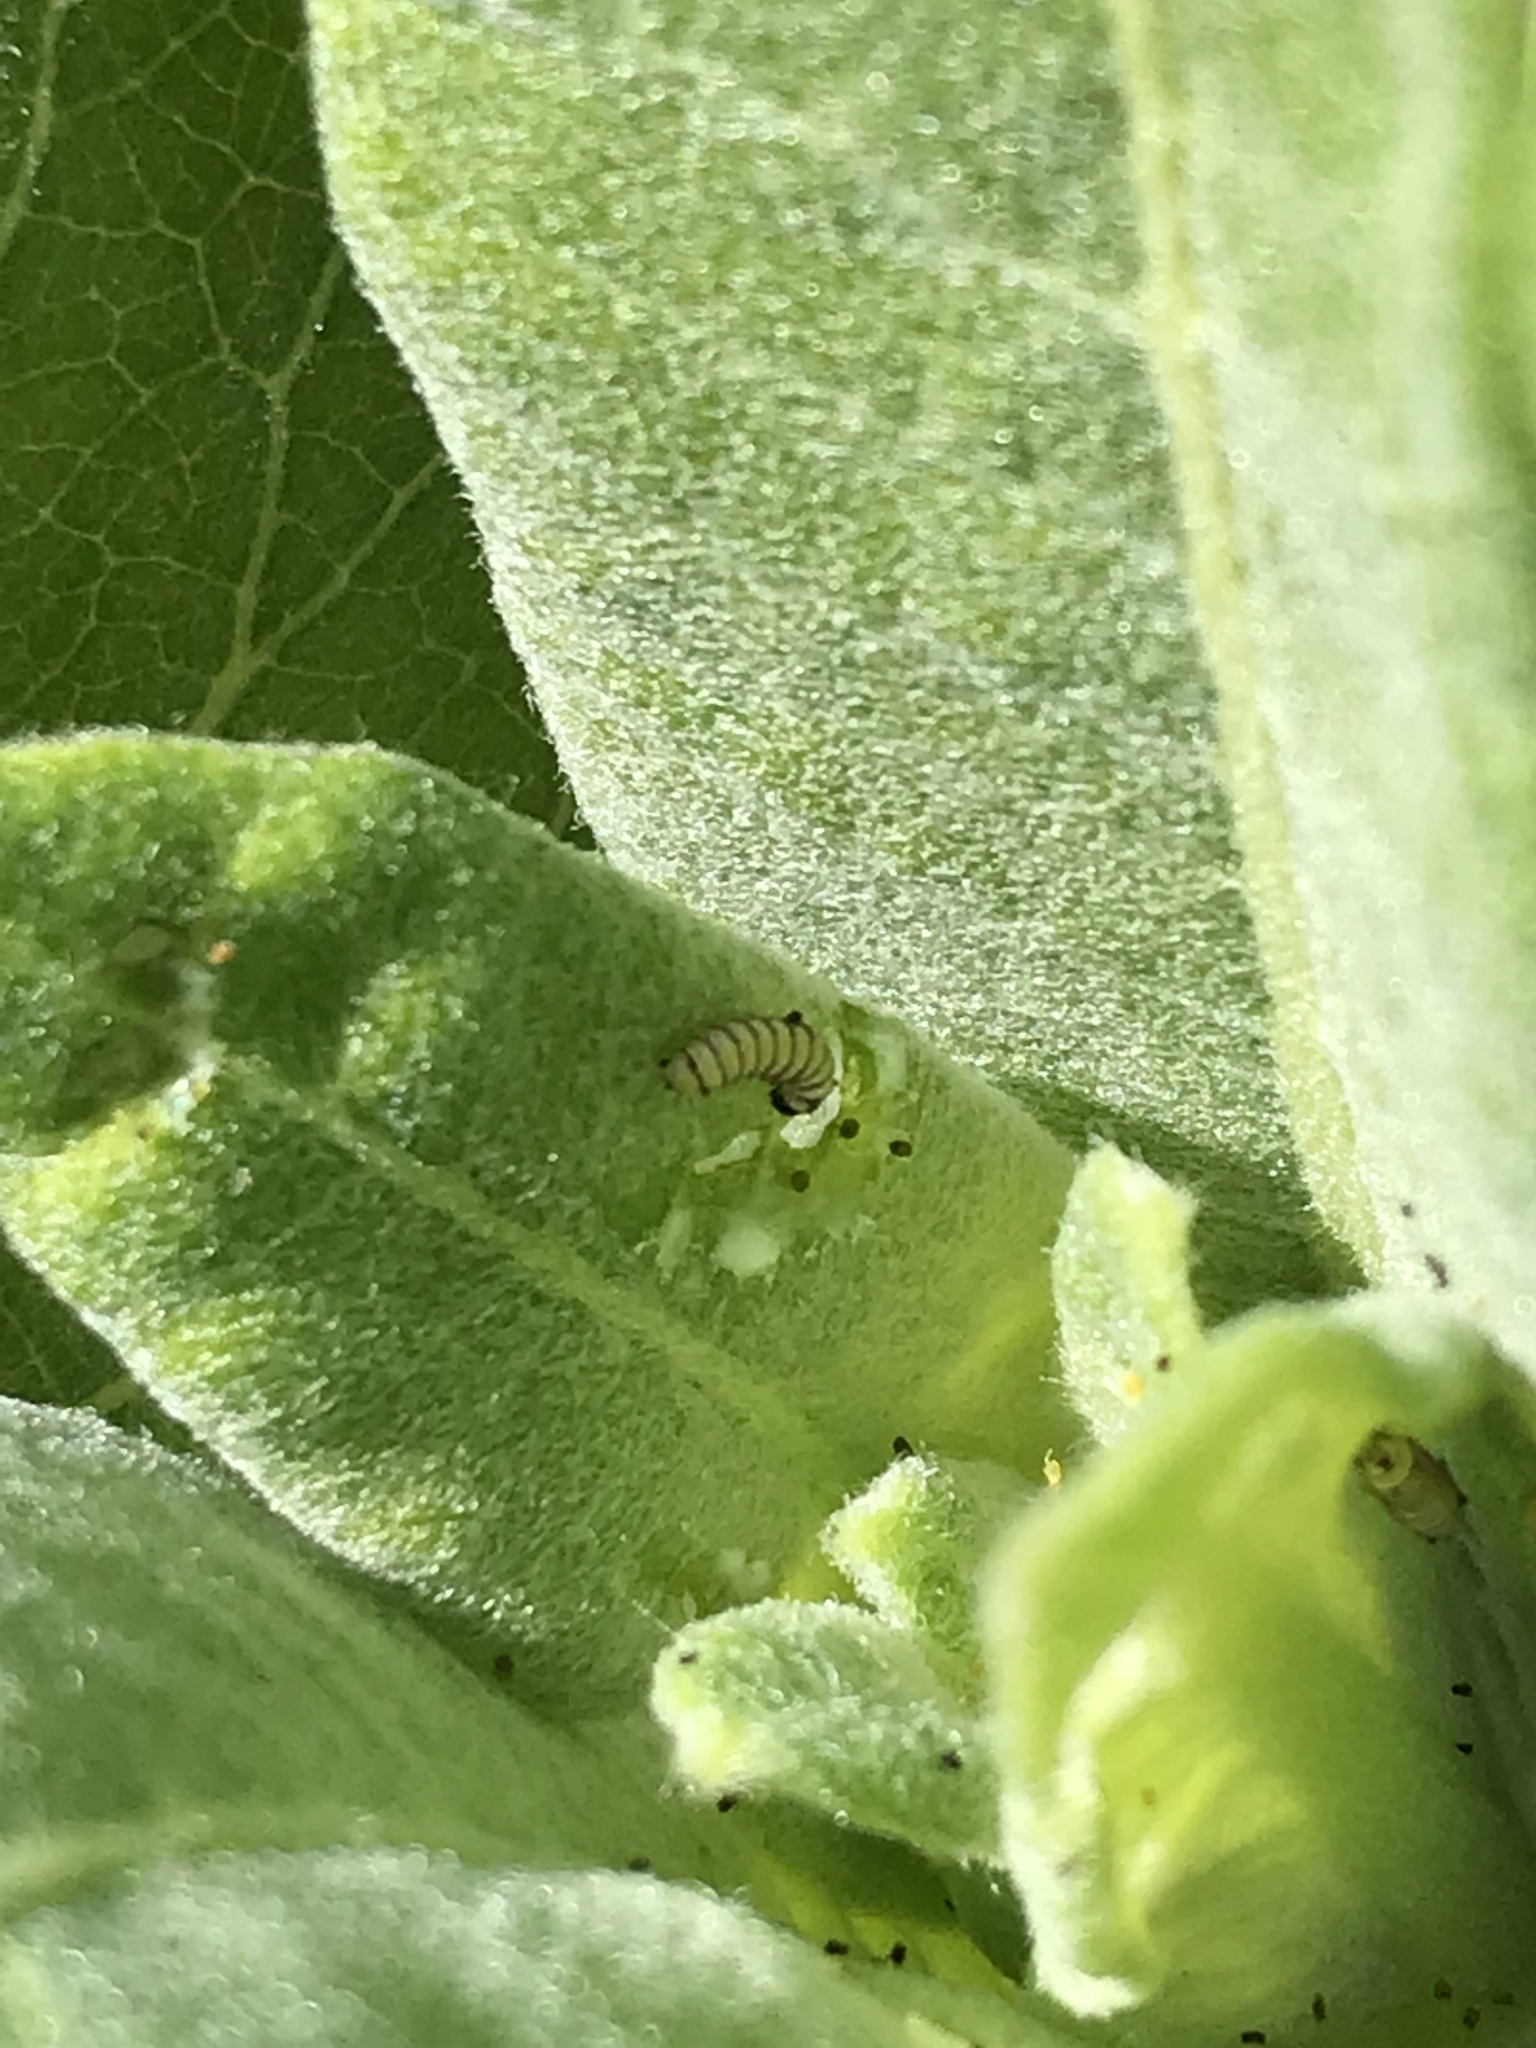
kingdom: Animalia
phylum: Arthropoda
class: Insecta
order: Lepidoptera
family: Nymphalidae
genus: Danaus
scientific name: Danaus plexippus
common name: Monarch
